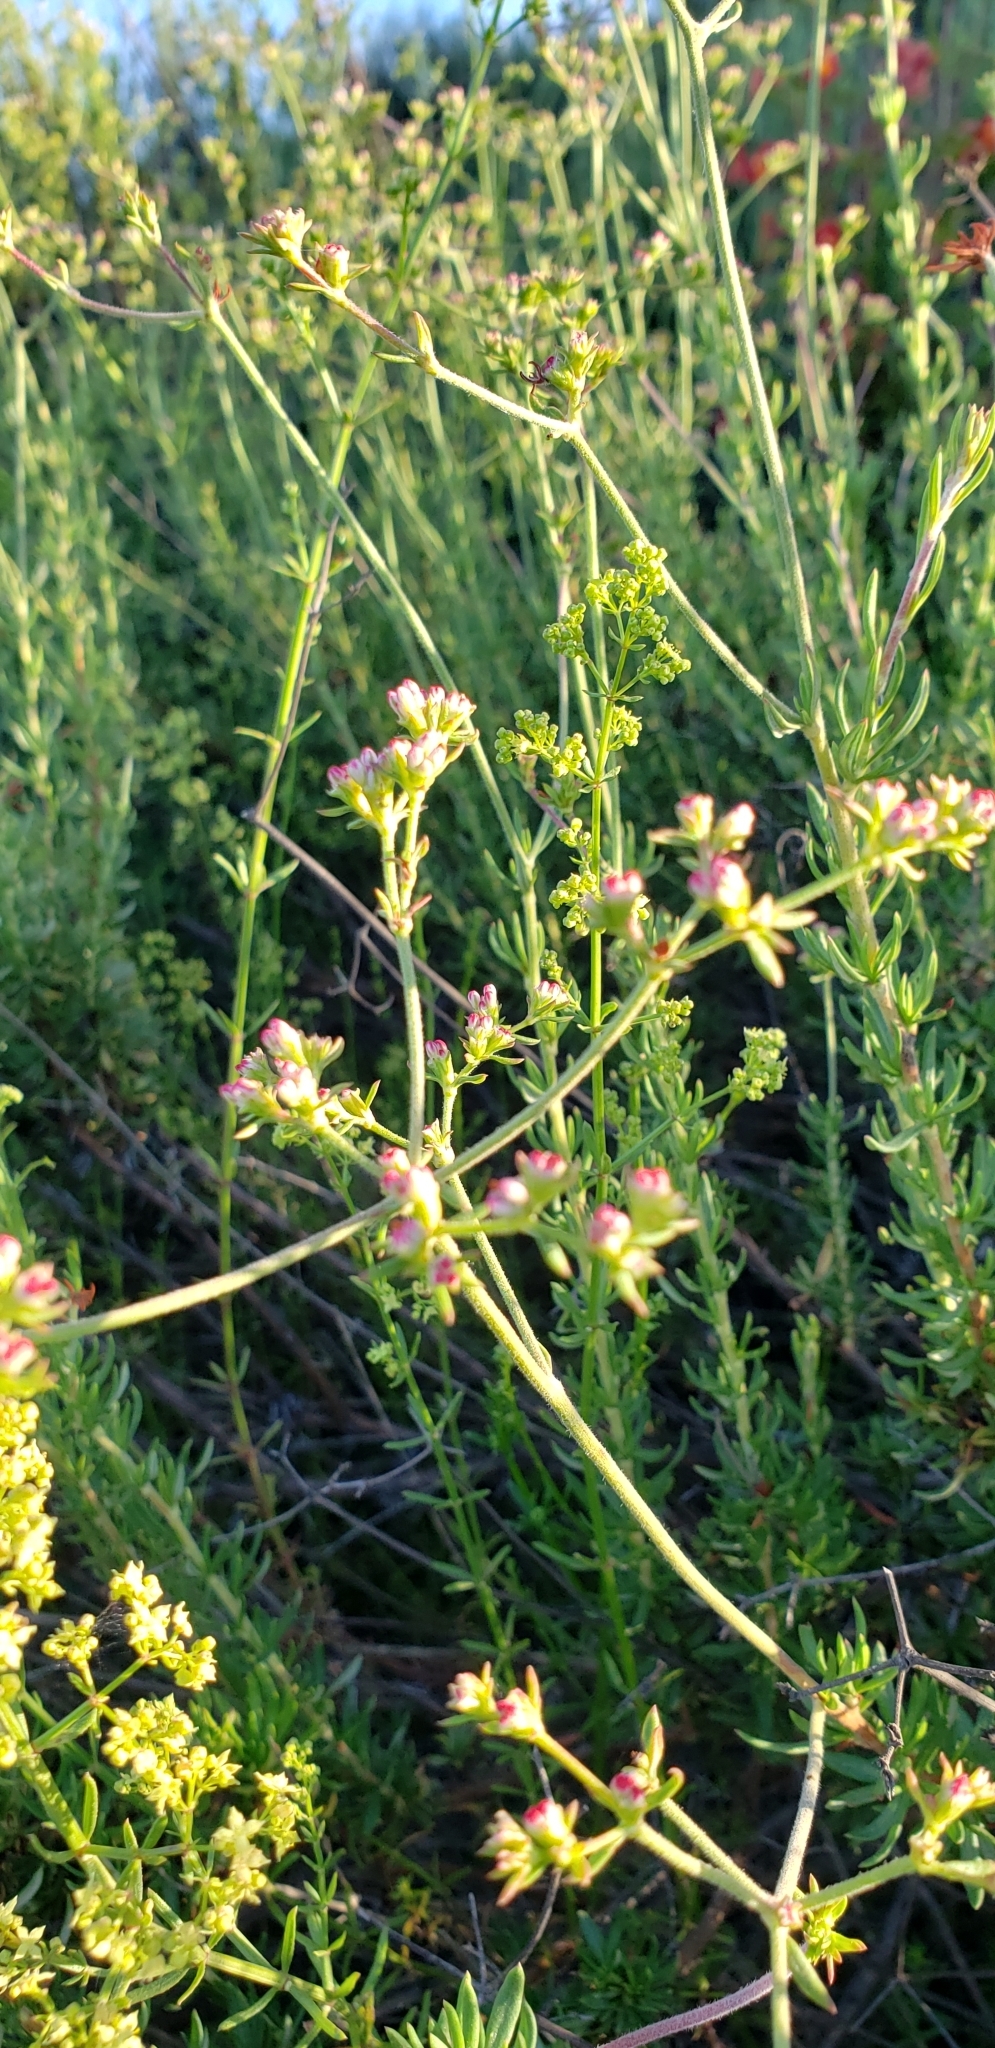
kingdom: Plantae
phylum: Tracheophyta
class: Magnoliopsida
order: Caryophyllales
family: Polygonaceae
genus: Eriogonum
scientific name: Eriogonum fasciculatum
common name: California wild buckwheat
